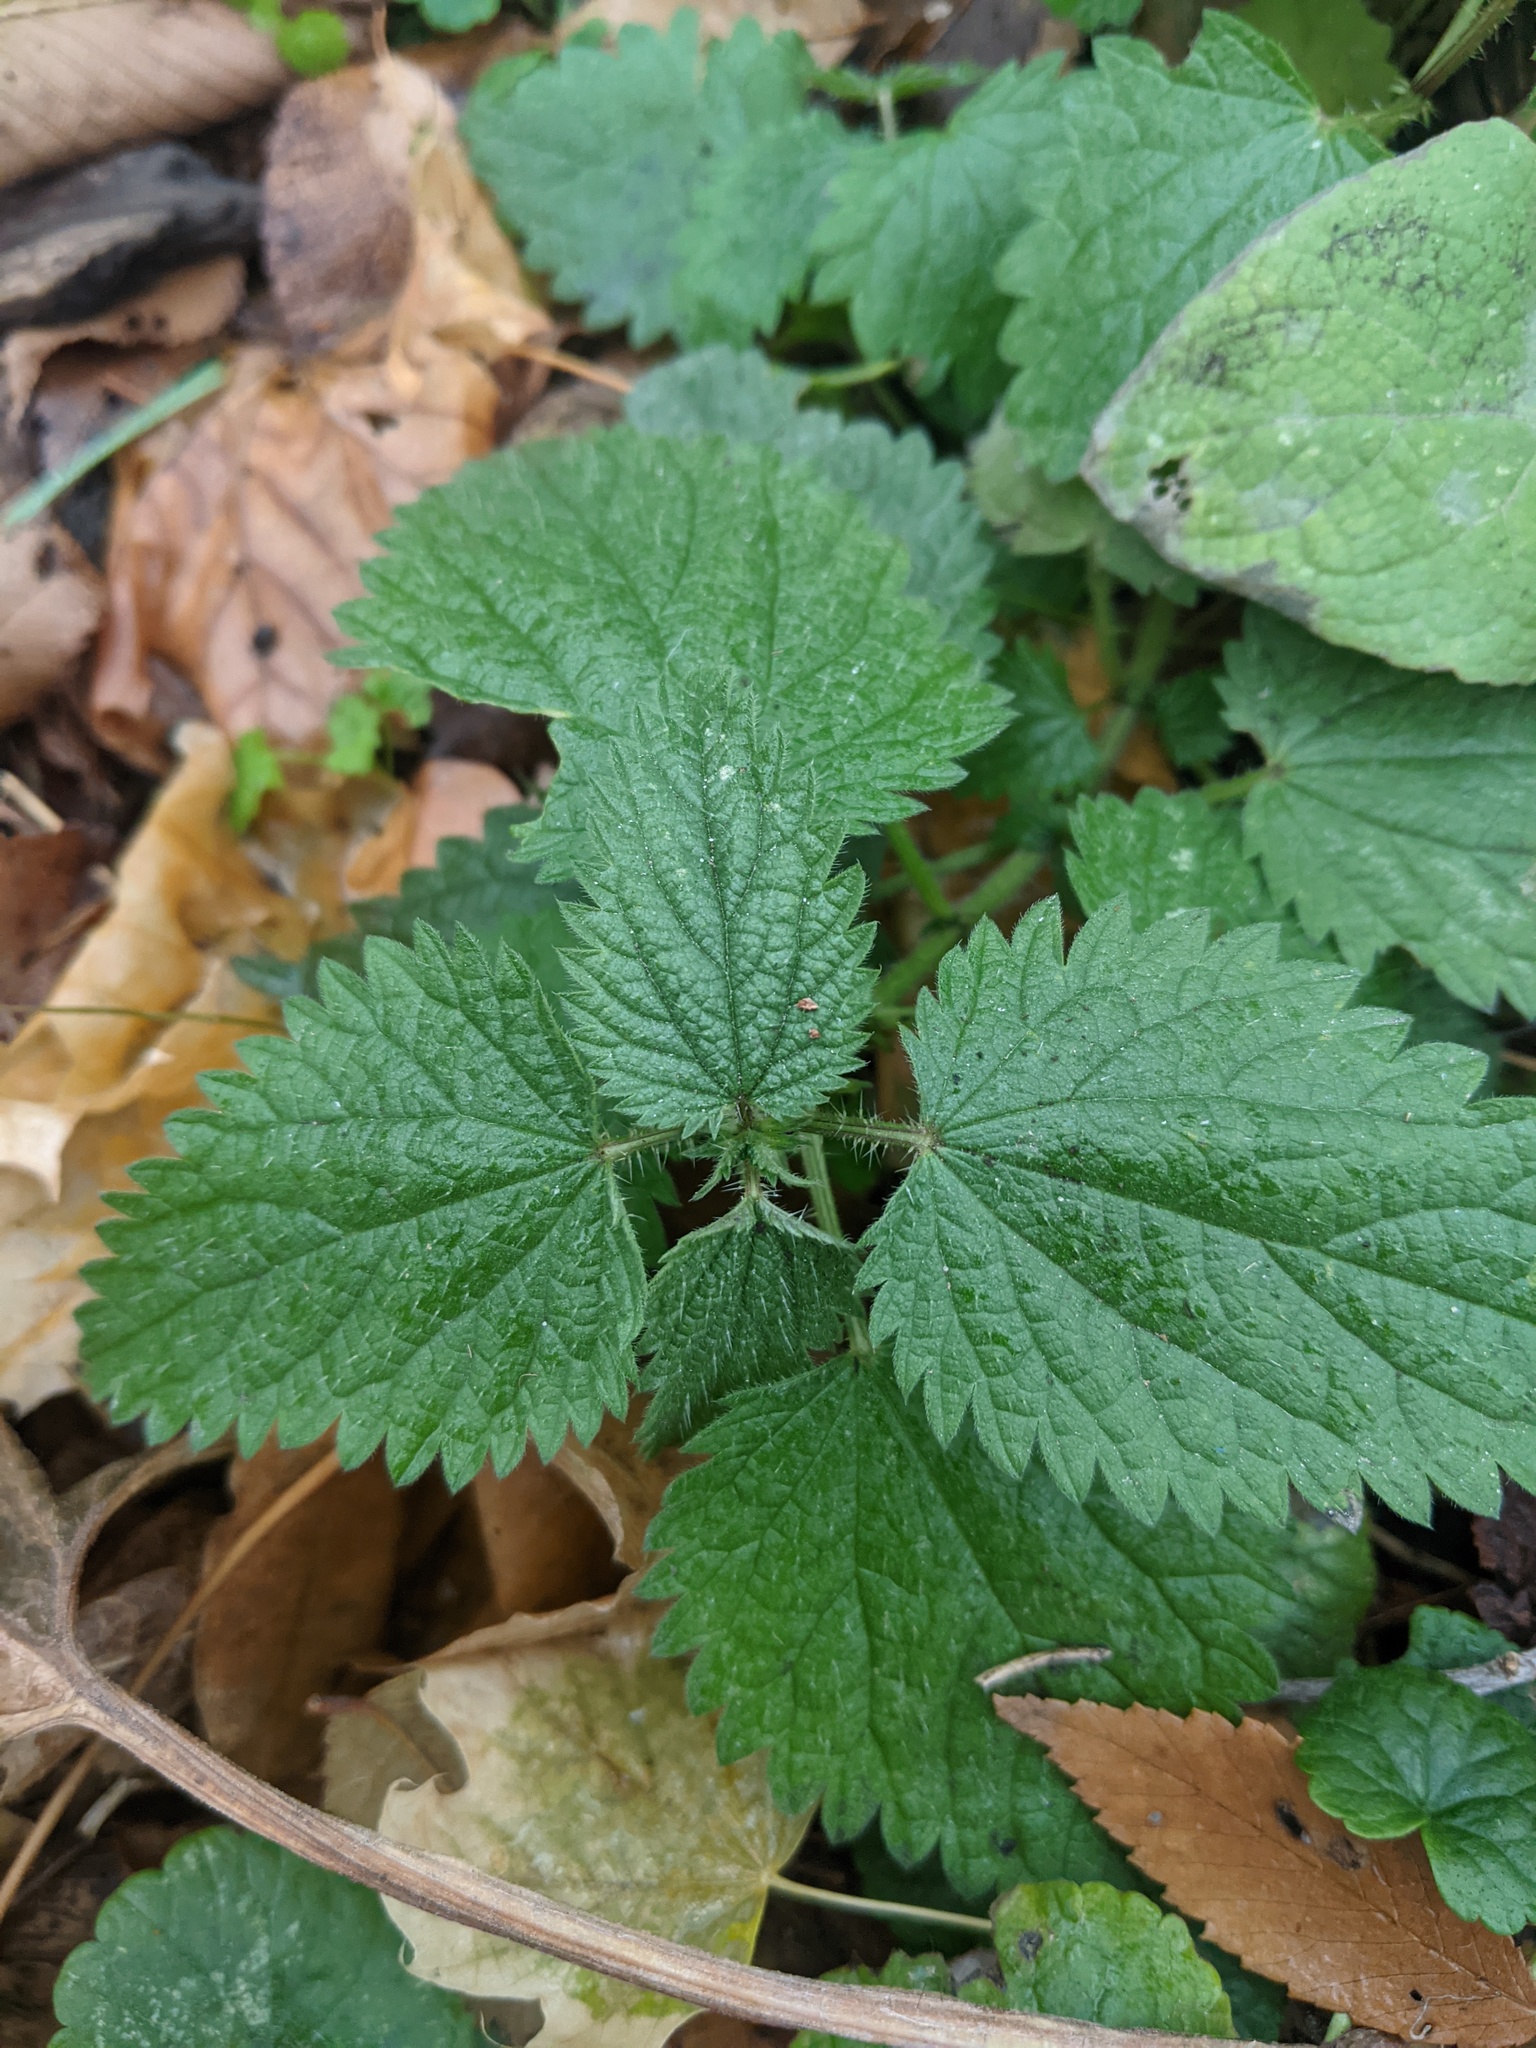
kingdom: Plantae
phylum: Tracheophyta
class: Magnoliopsida
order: Rosales
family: Urticaceae
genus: Urtica
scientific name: Urtica dioica
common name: Common nettle
